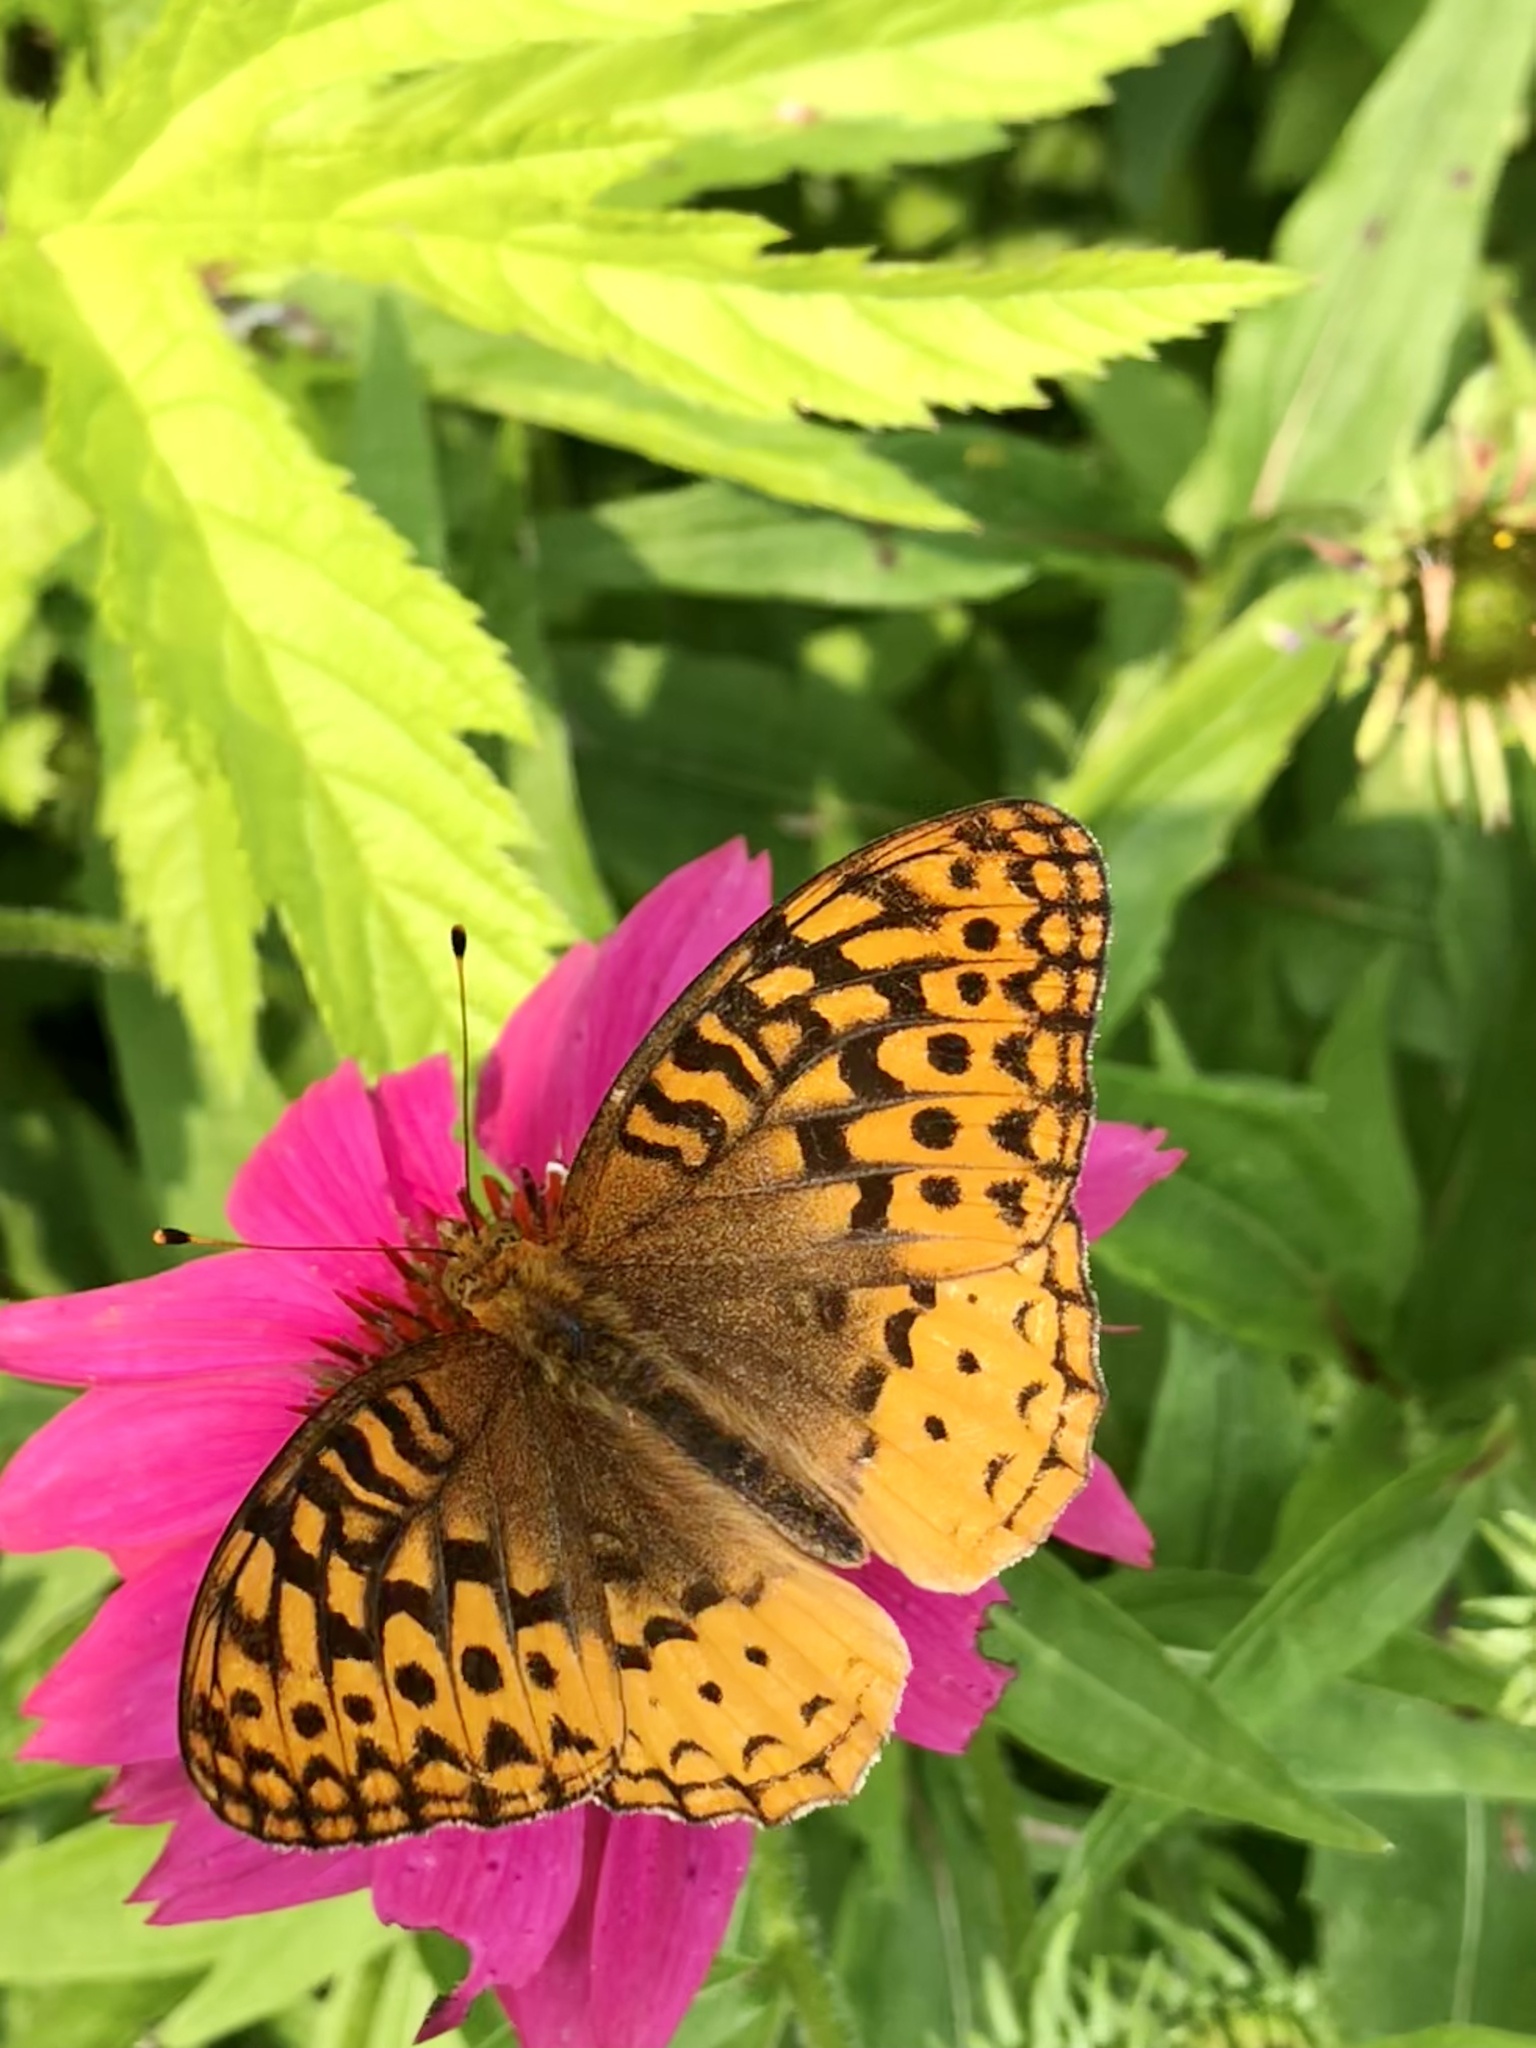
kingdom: Animalia
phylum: Arthropoda
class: Insecta
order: Lepidoptera
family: Nymphalidae
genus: Speyeria
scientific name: Speyeria cybele
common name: Great spangled fritillary
